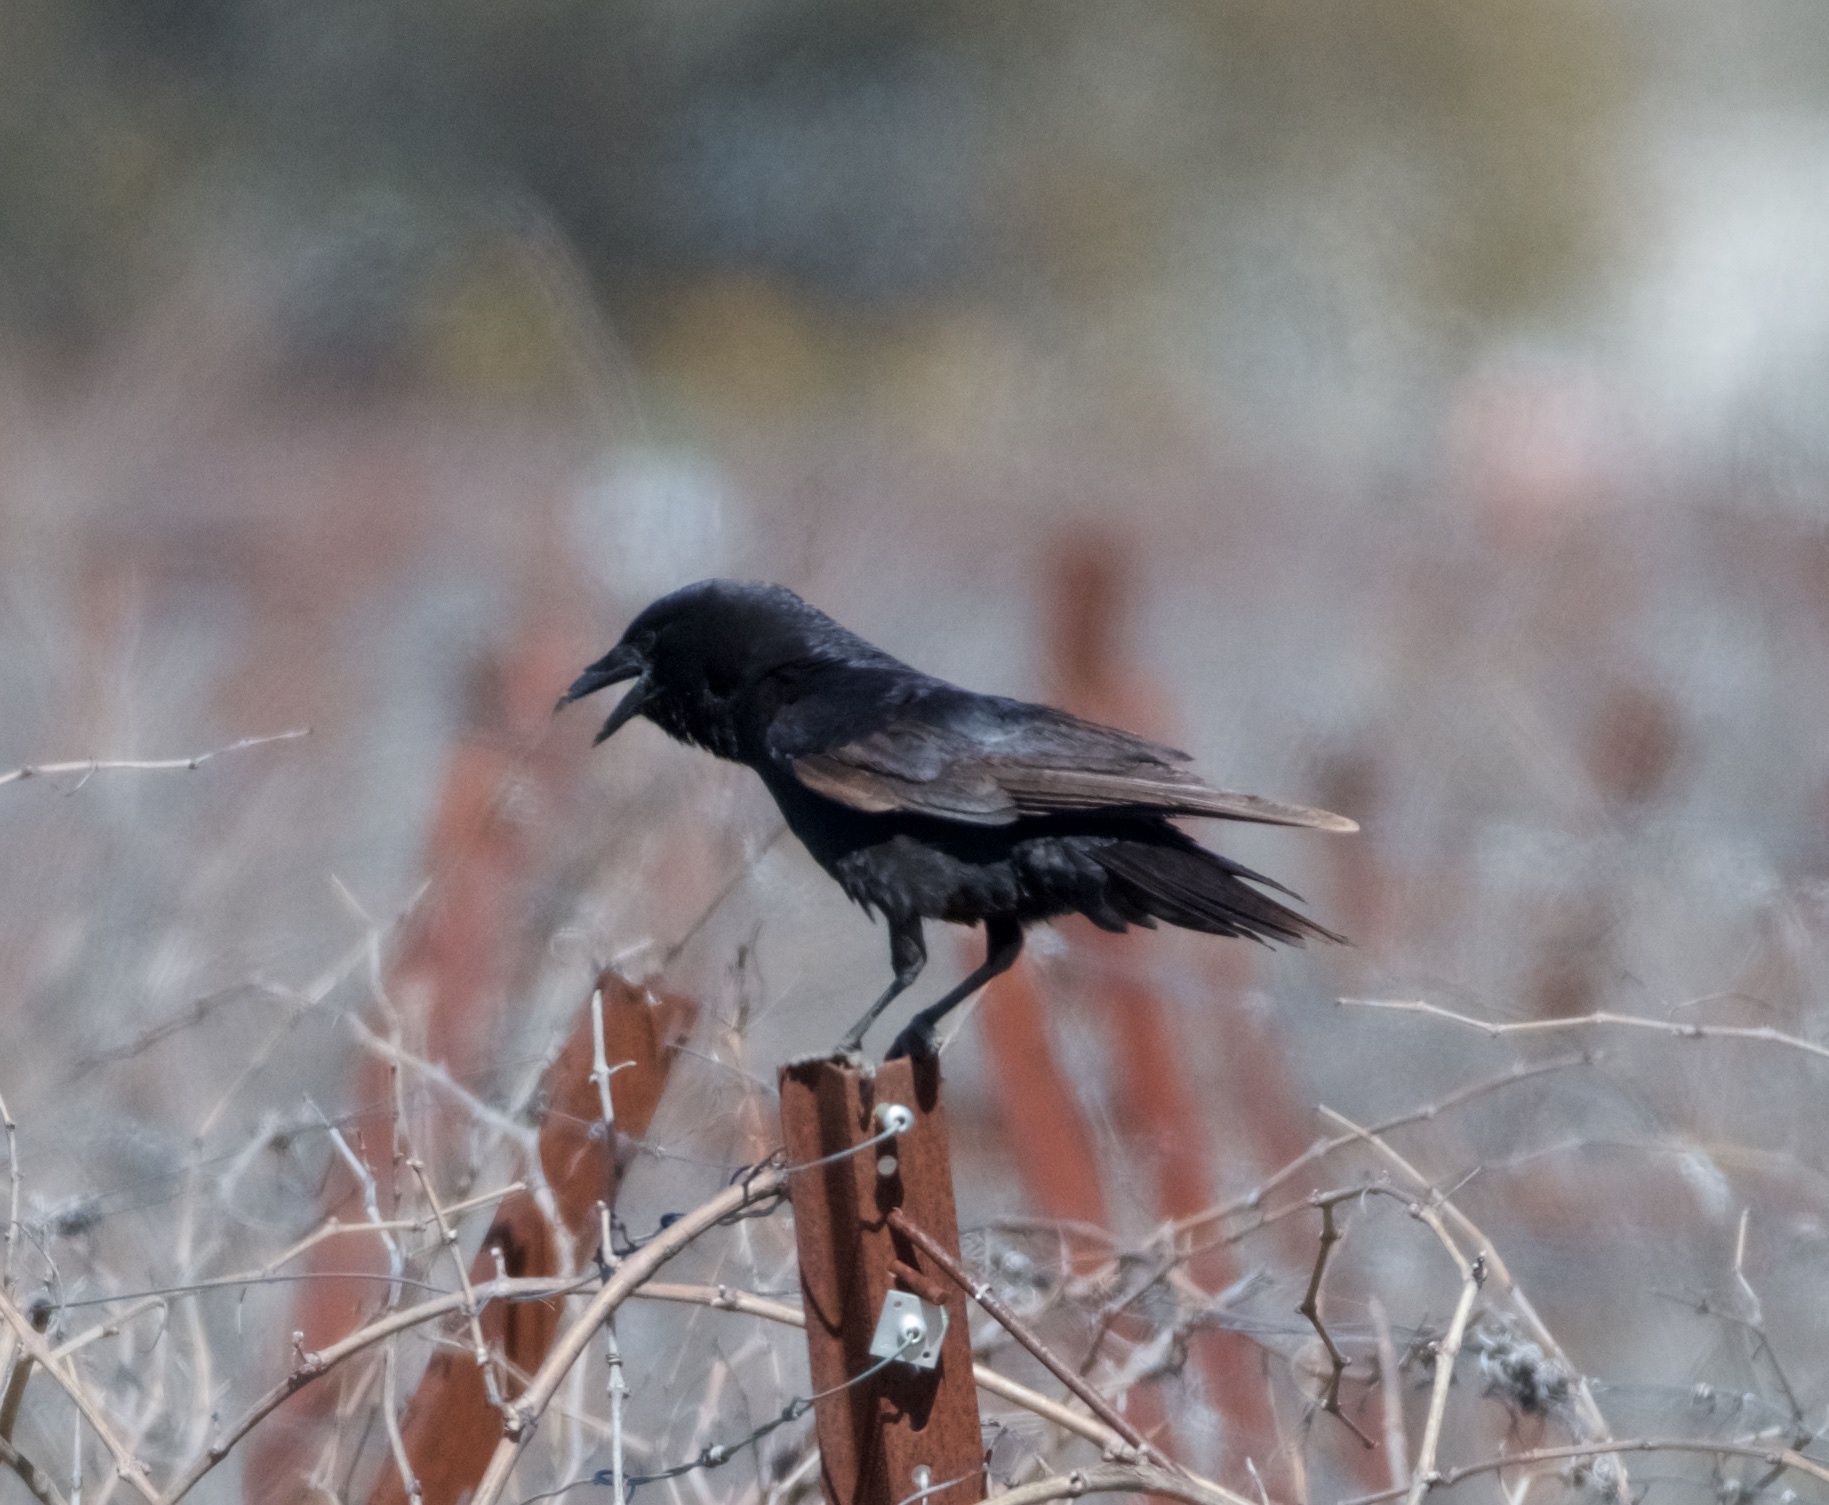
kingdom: Animalia
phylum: Chordata
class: Aves
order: Passeriformes
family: Corvidae
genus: Corvus
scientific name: Corvus brachyrhynchos
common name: American crow
